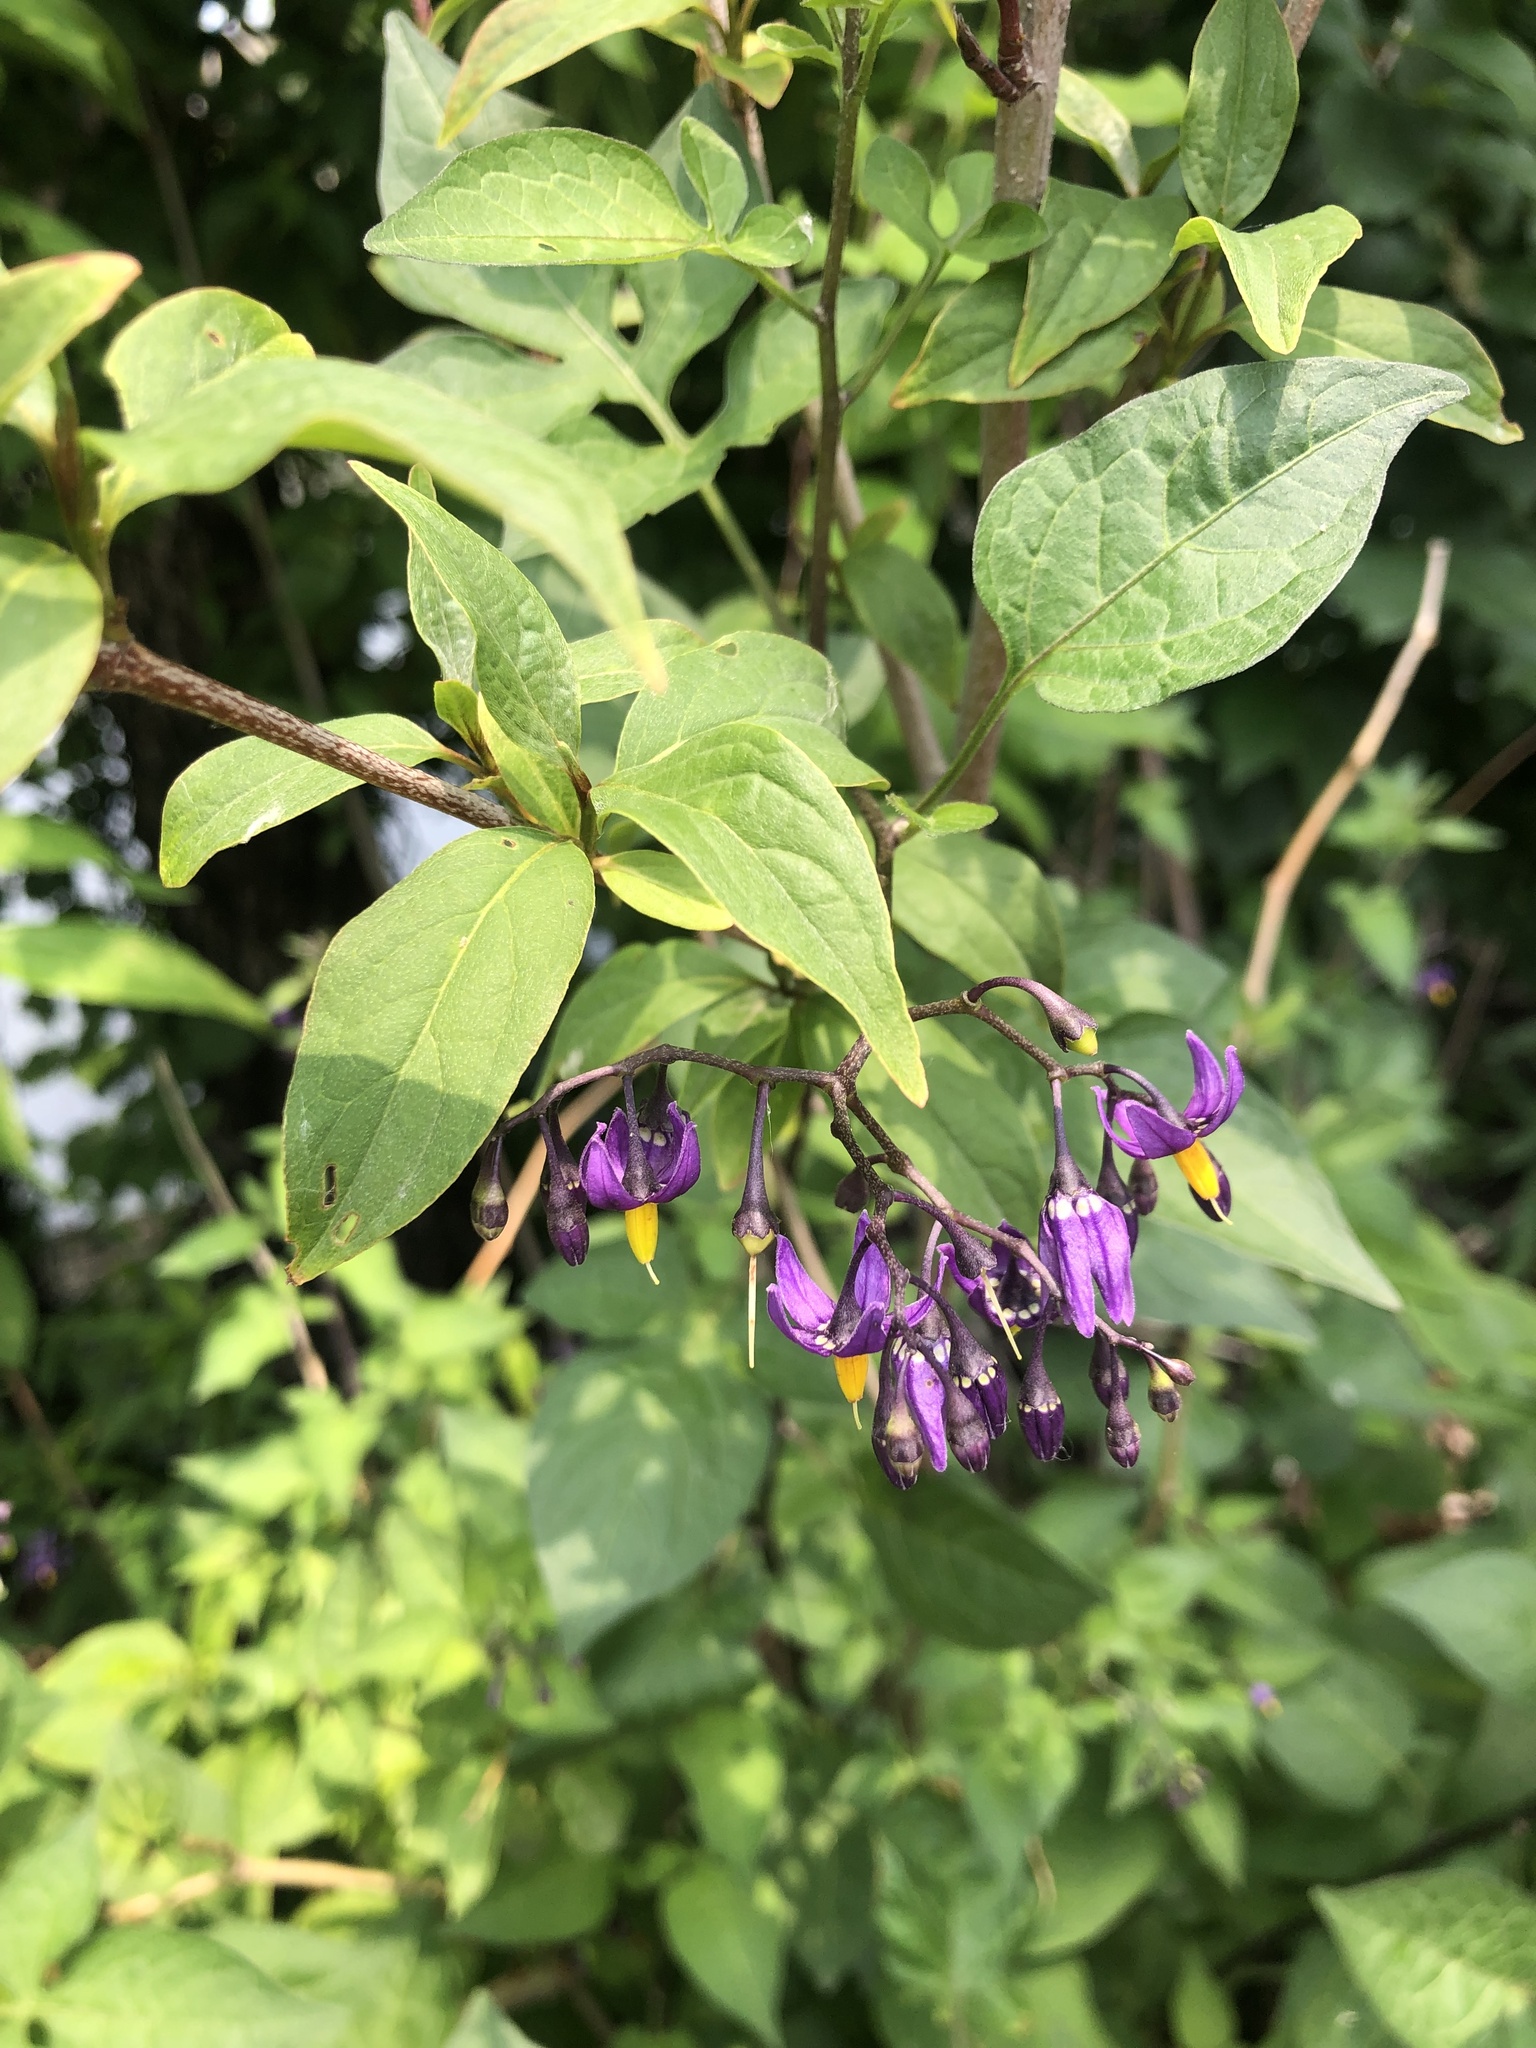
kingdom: Plantae
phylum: Tracheophyta
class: Magnoliopsida
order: Solanales
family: Solanaceae
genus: Solanum
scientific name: Solanum dulcamara
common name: Climbing nightshade
